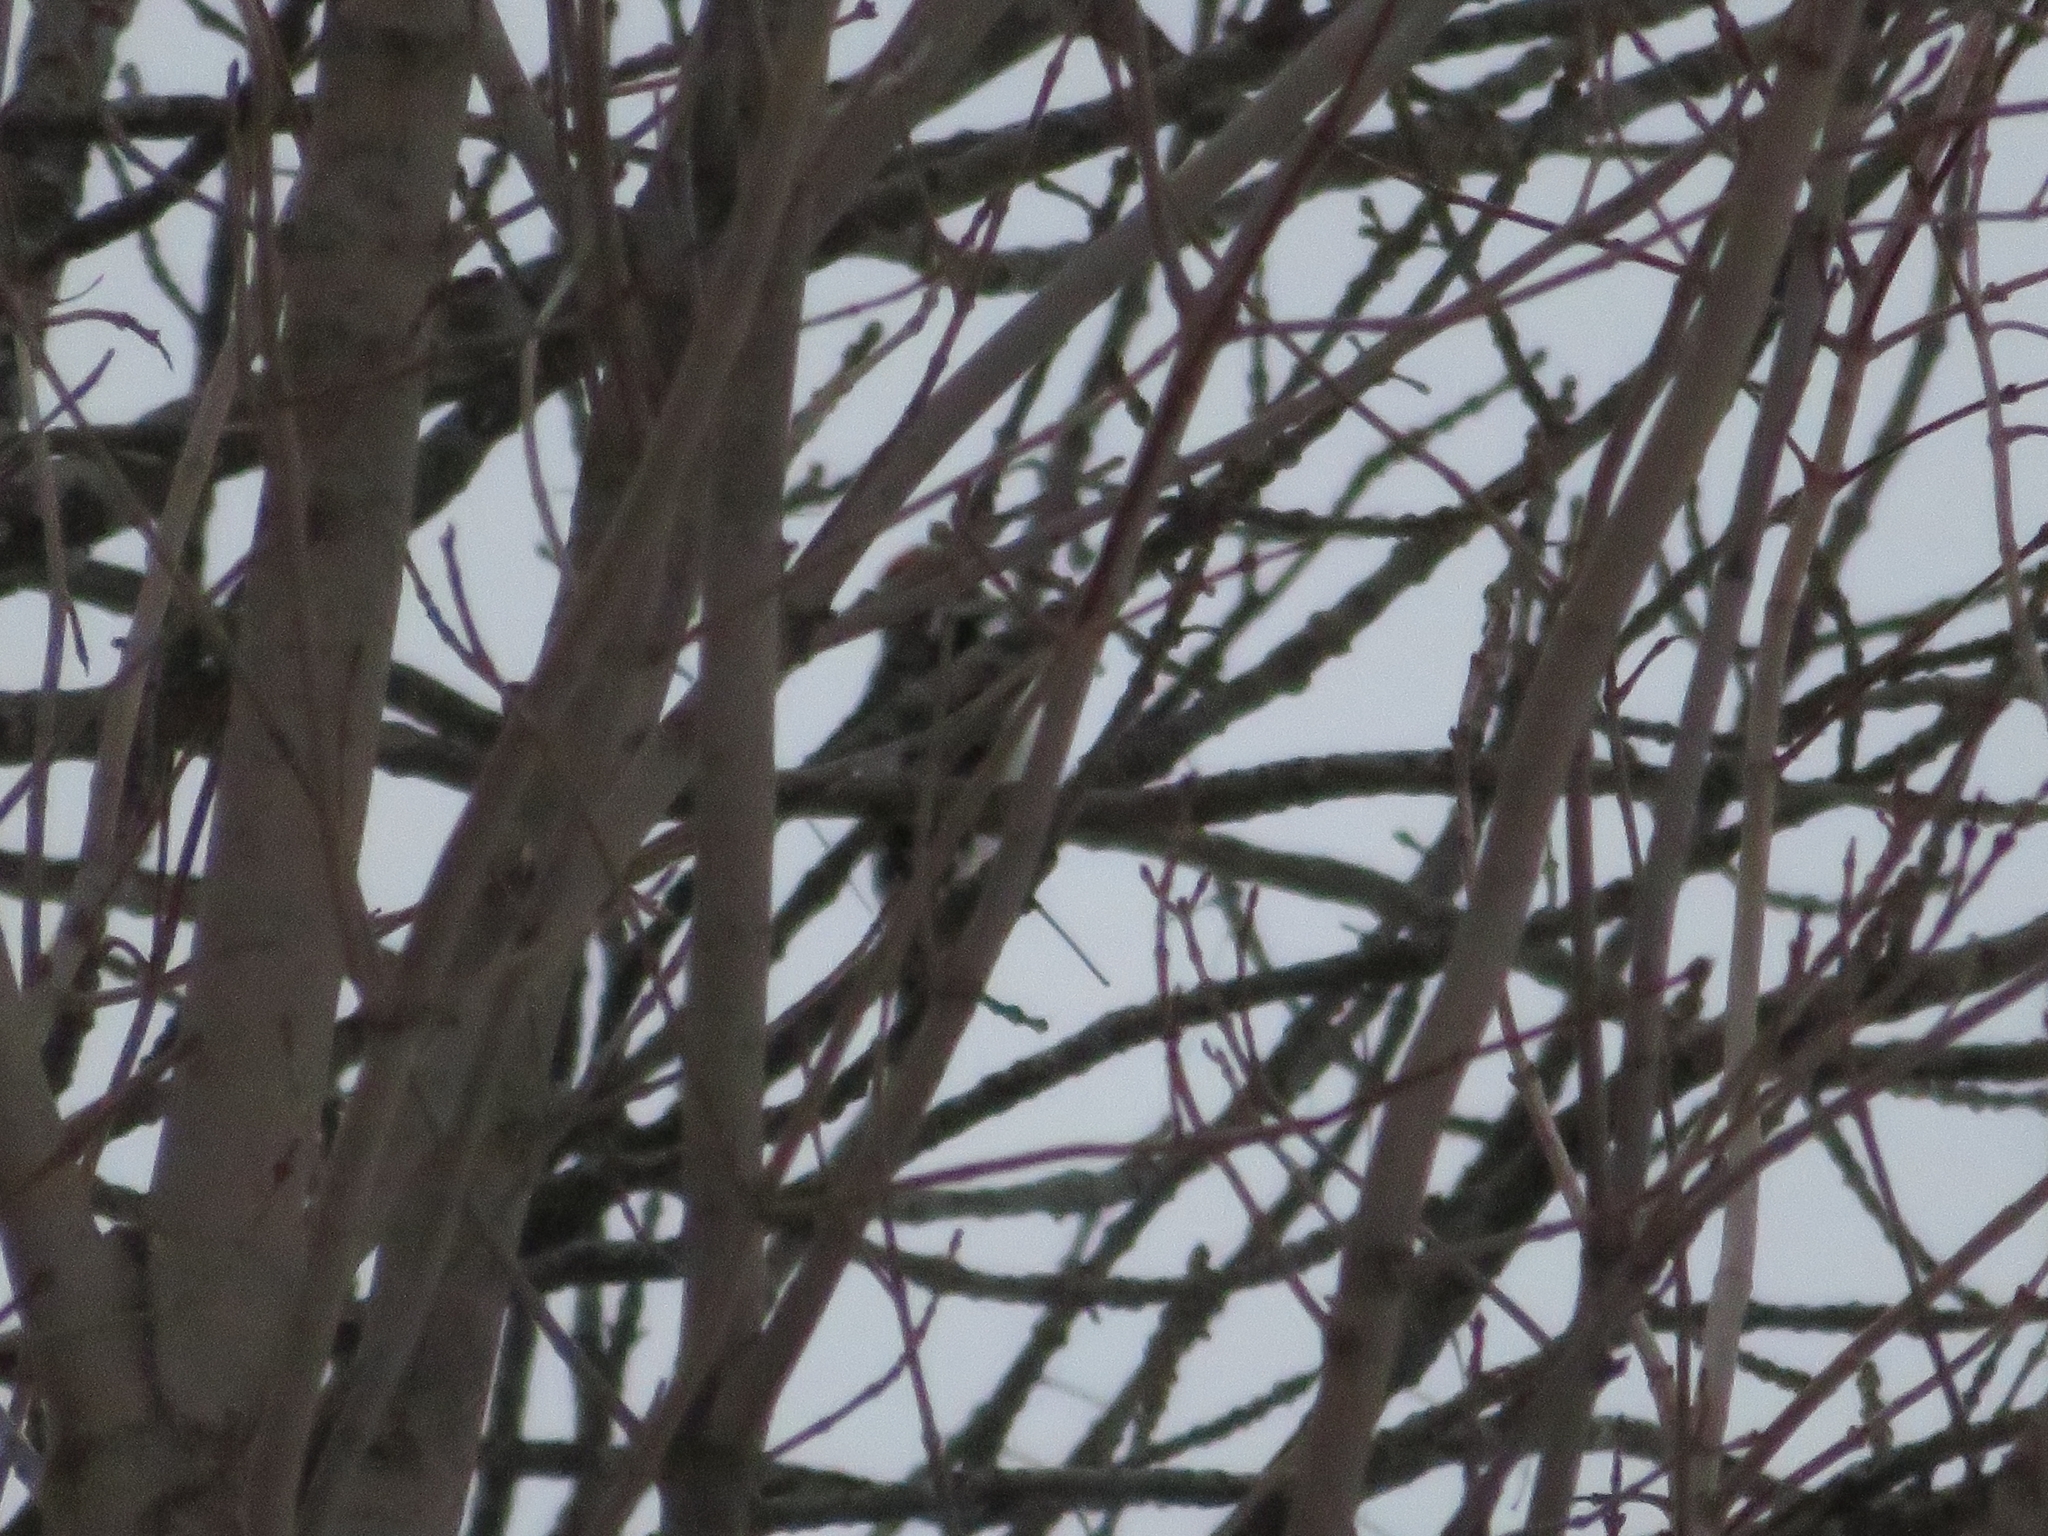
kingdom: Animalia
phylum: Chordata
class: Aves
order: Piciformes
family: Picidae
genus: Leuconotopicus
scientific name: Leuconotopicus villosus
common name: Hairy woodpecker
